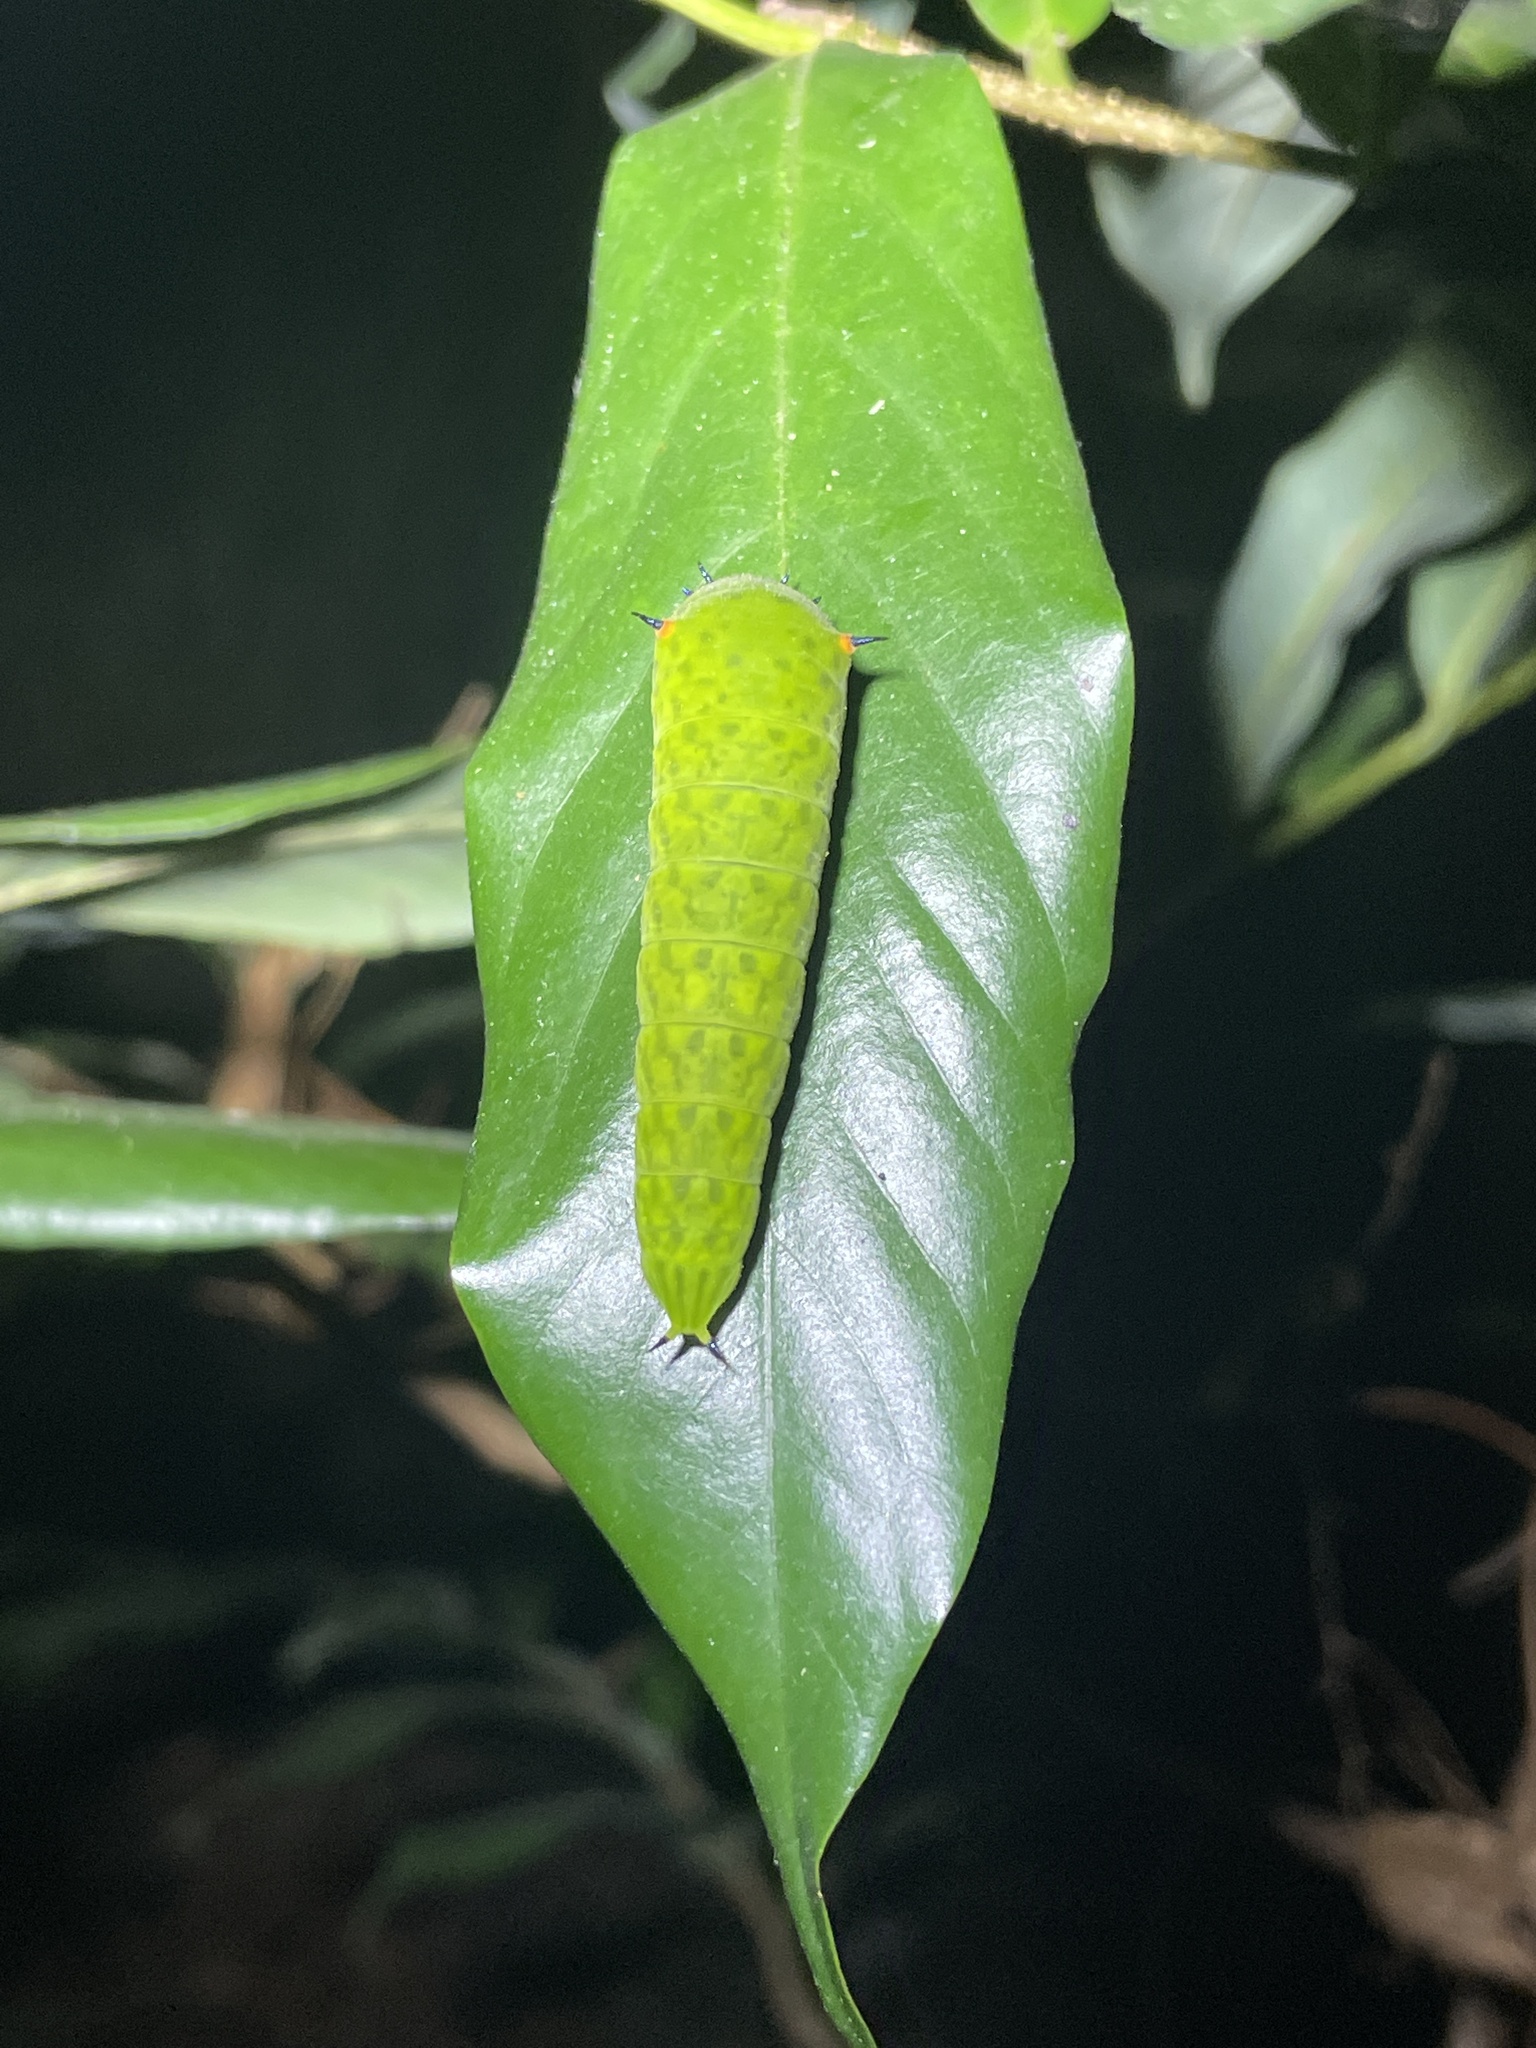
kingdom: Animalia
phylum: Arthropoda
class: Insecta
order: Lepidoptera
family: Papilionidae
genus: Graphium
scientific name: Graphium agamemnon
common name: Tailed jay
